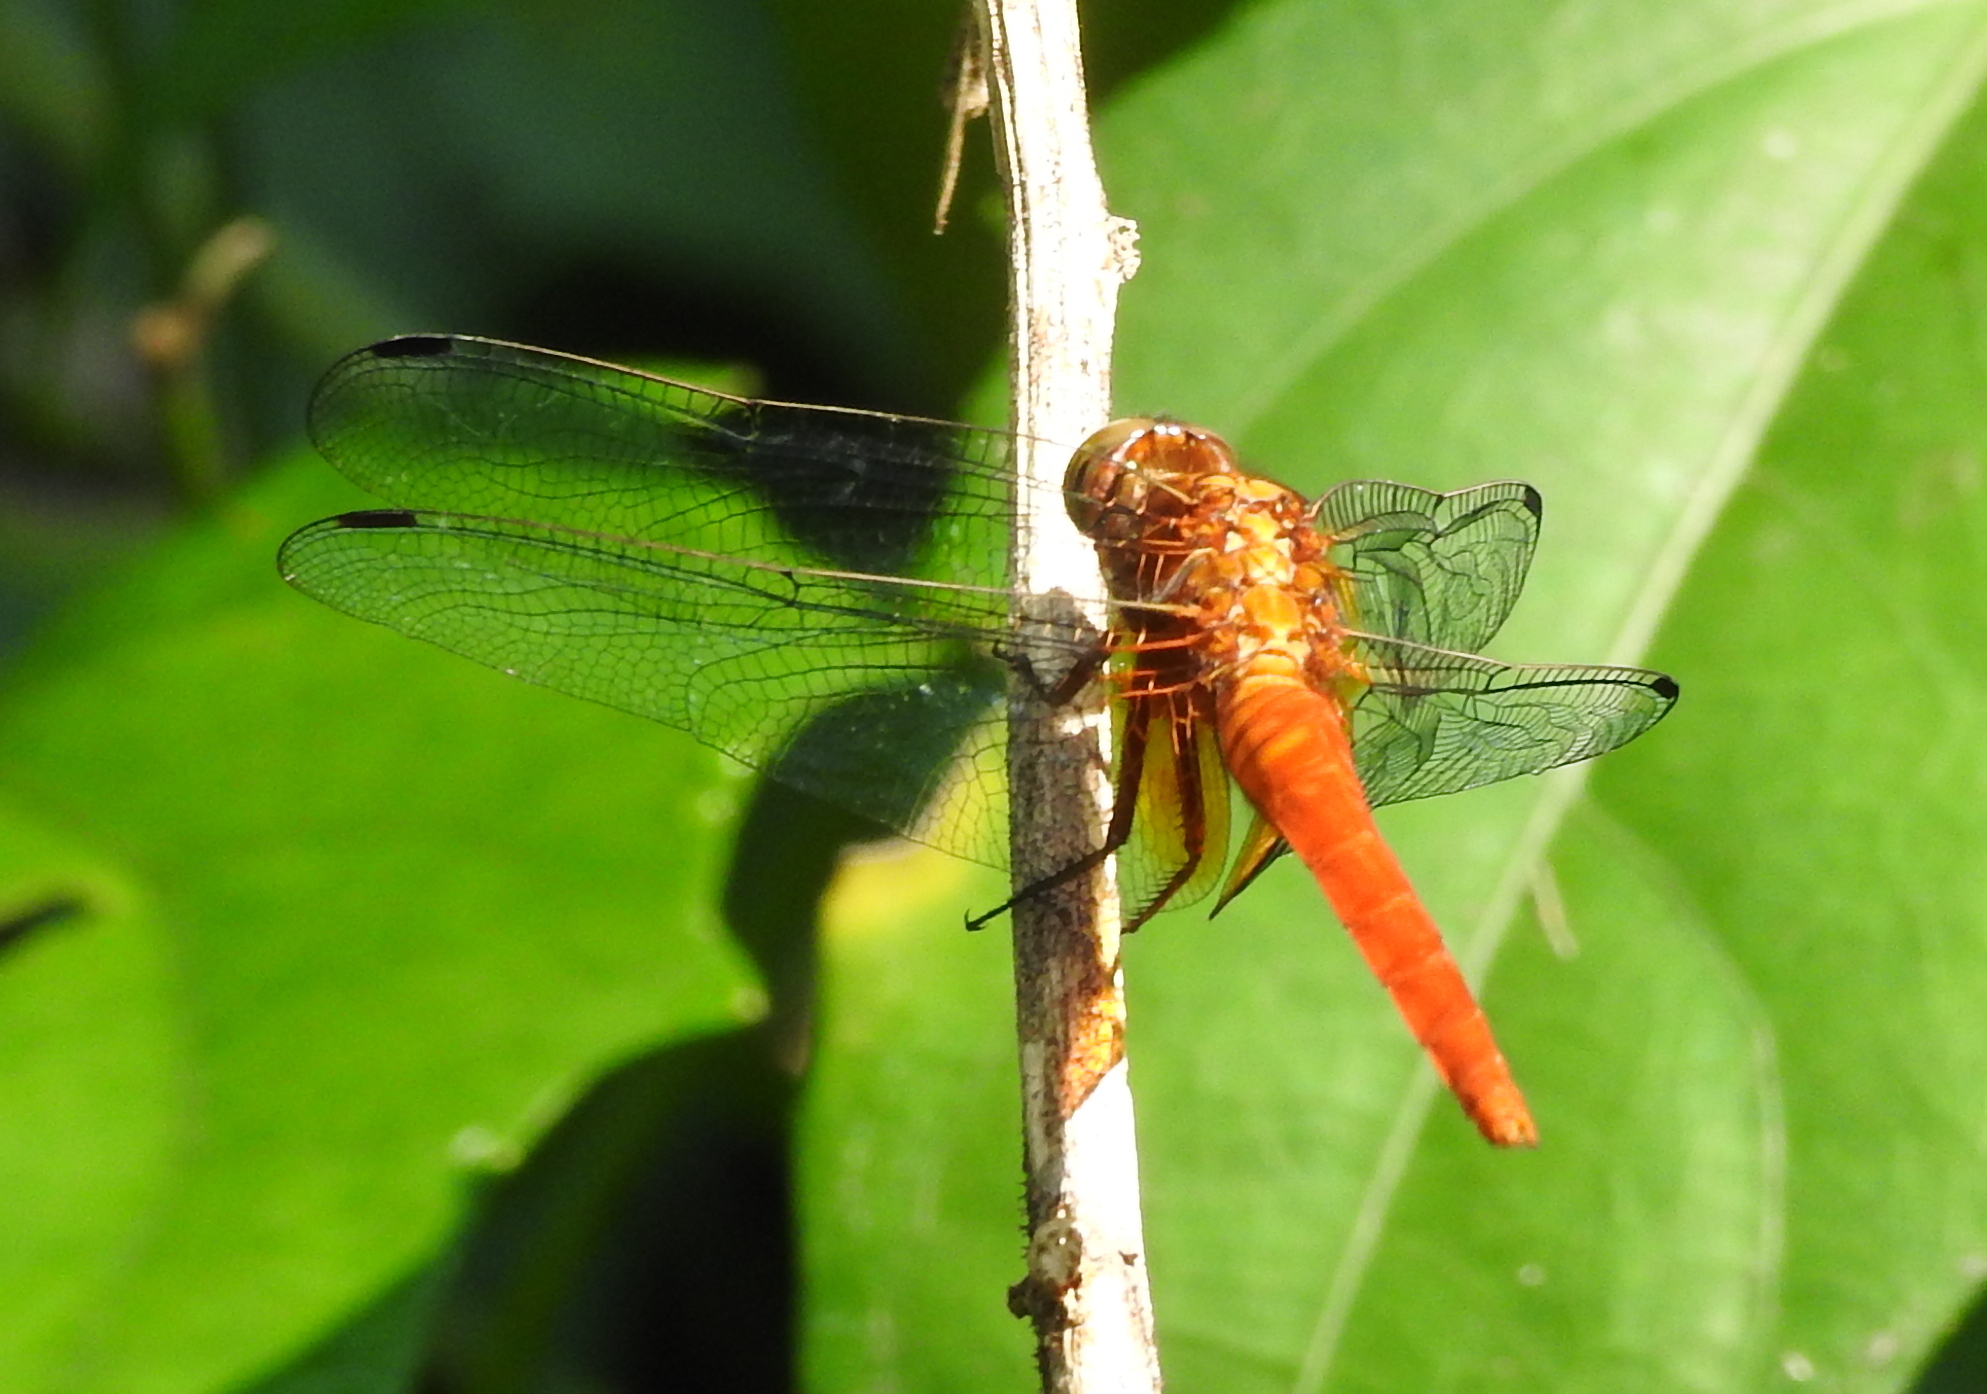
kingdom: Animalia
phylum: Arthropoda
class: Insecta
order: Odonata
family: Libellulidae
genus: Orthetrum
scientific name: Orthetrum testaceum
